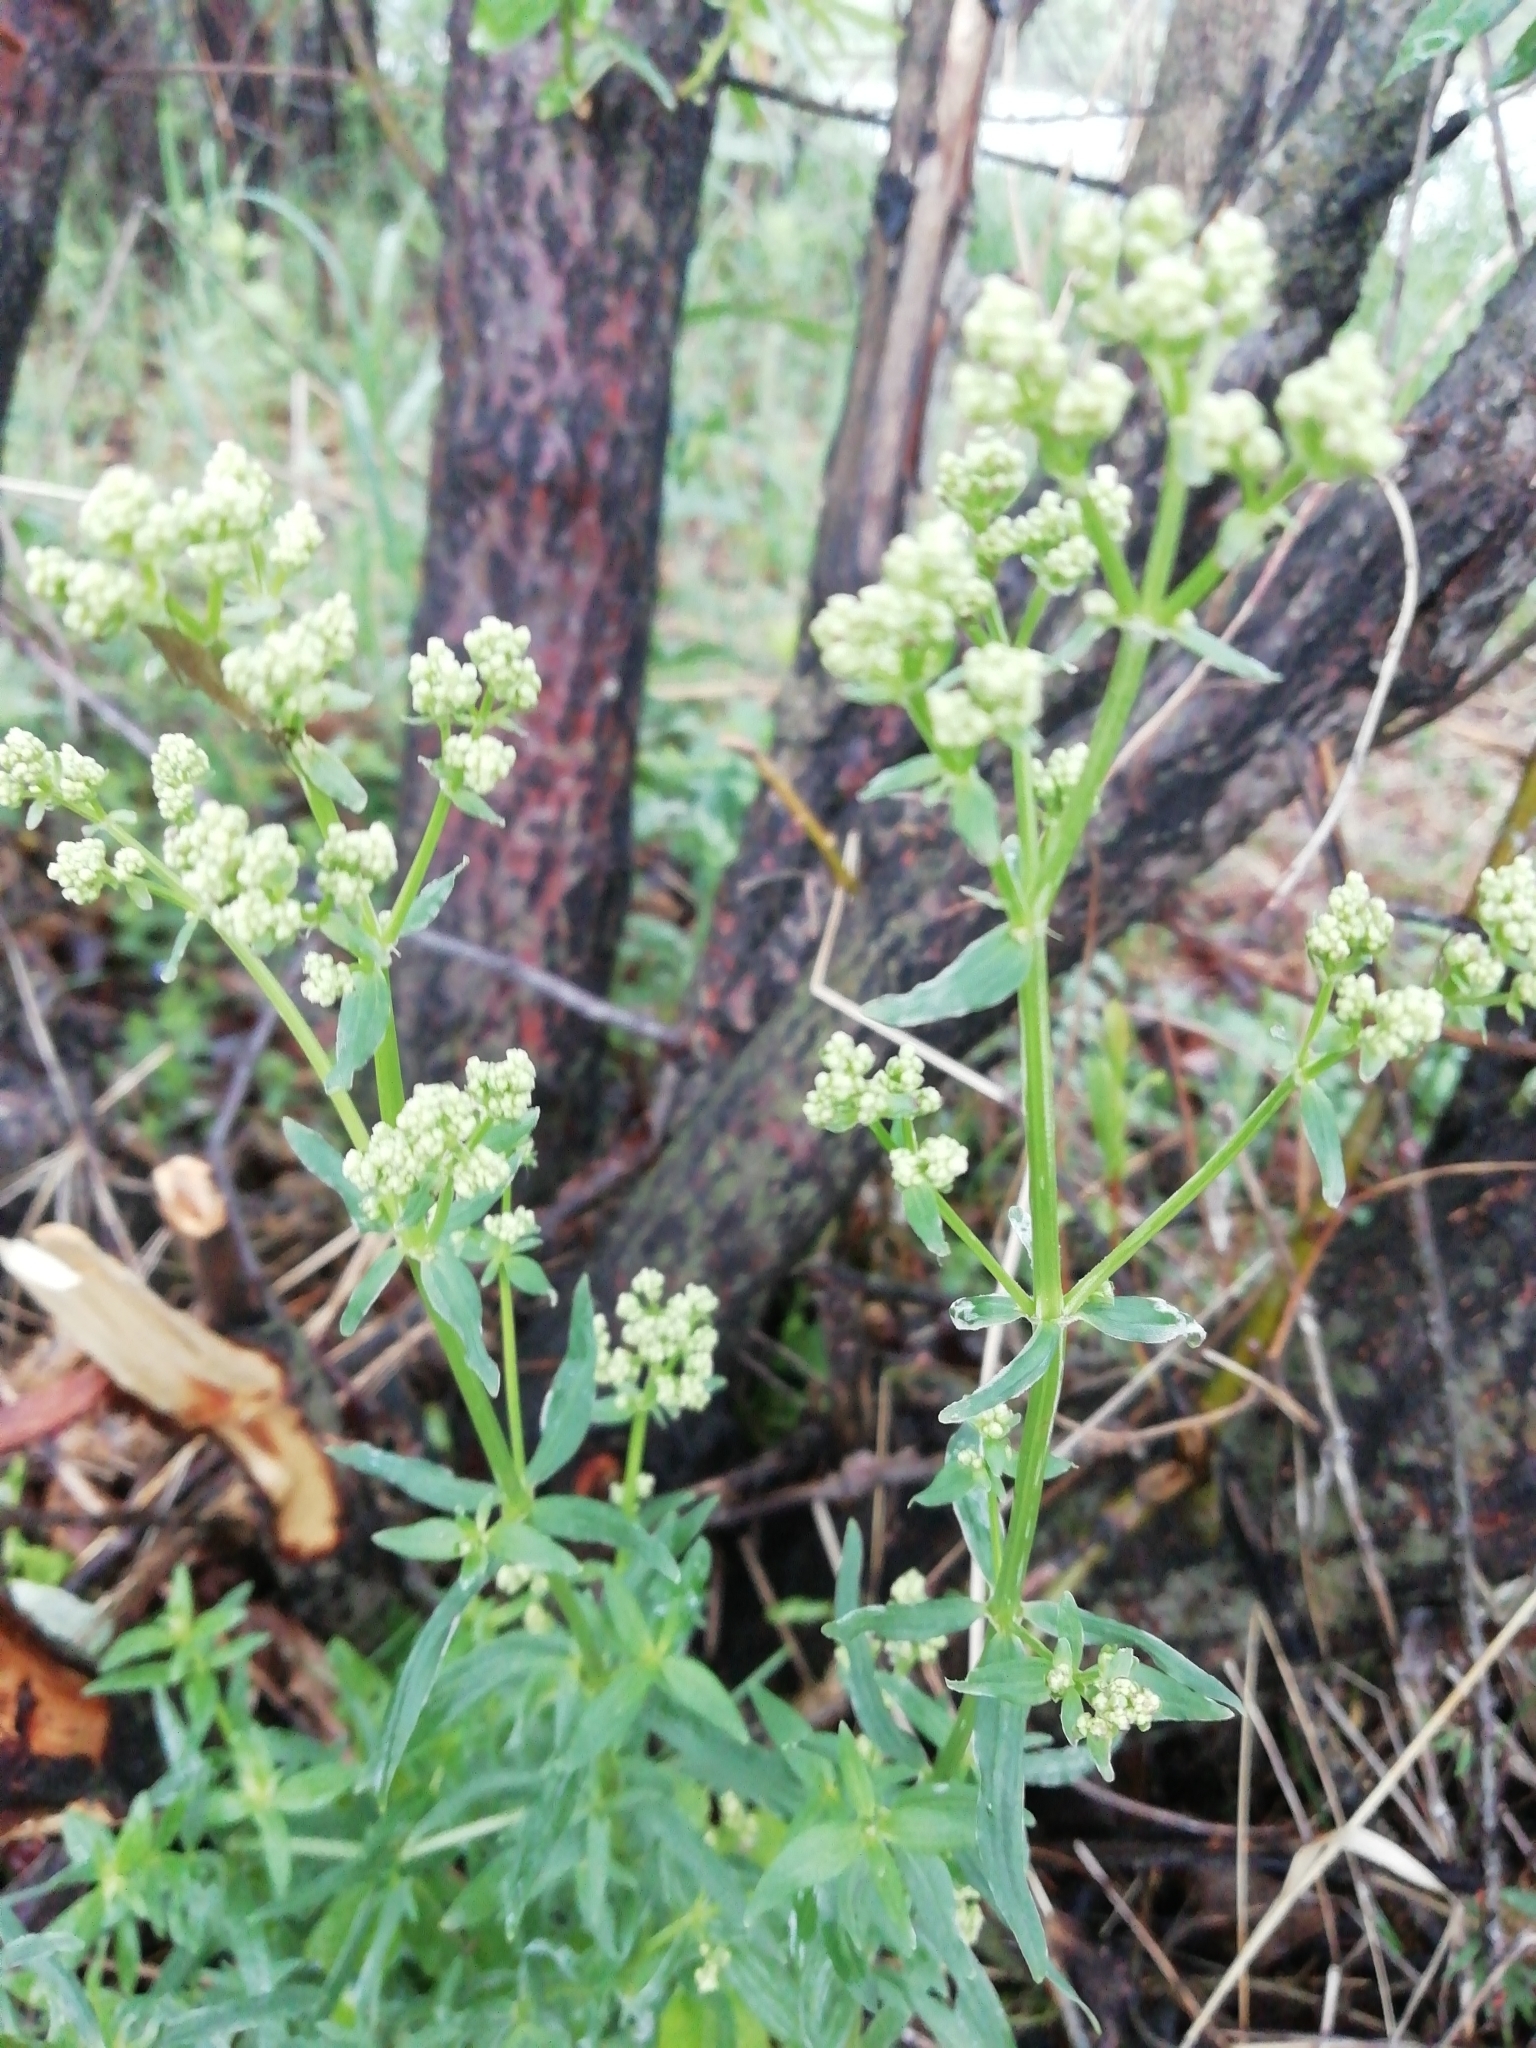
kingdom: Plantae
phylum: Tracheophyta
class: Magnoliopsida
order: Gentianales
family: Rubiaceae
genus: Galium
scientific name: Galium boreale
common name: Northern bedstraw
